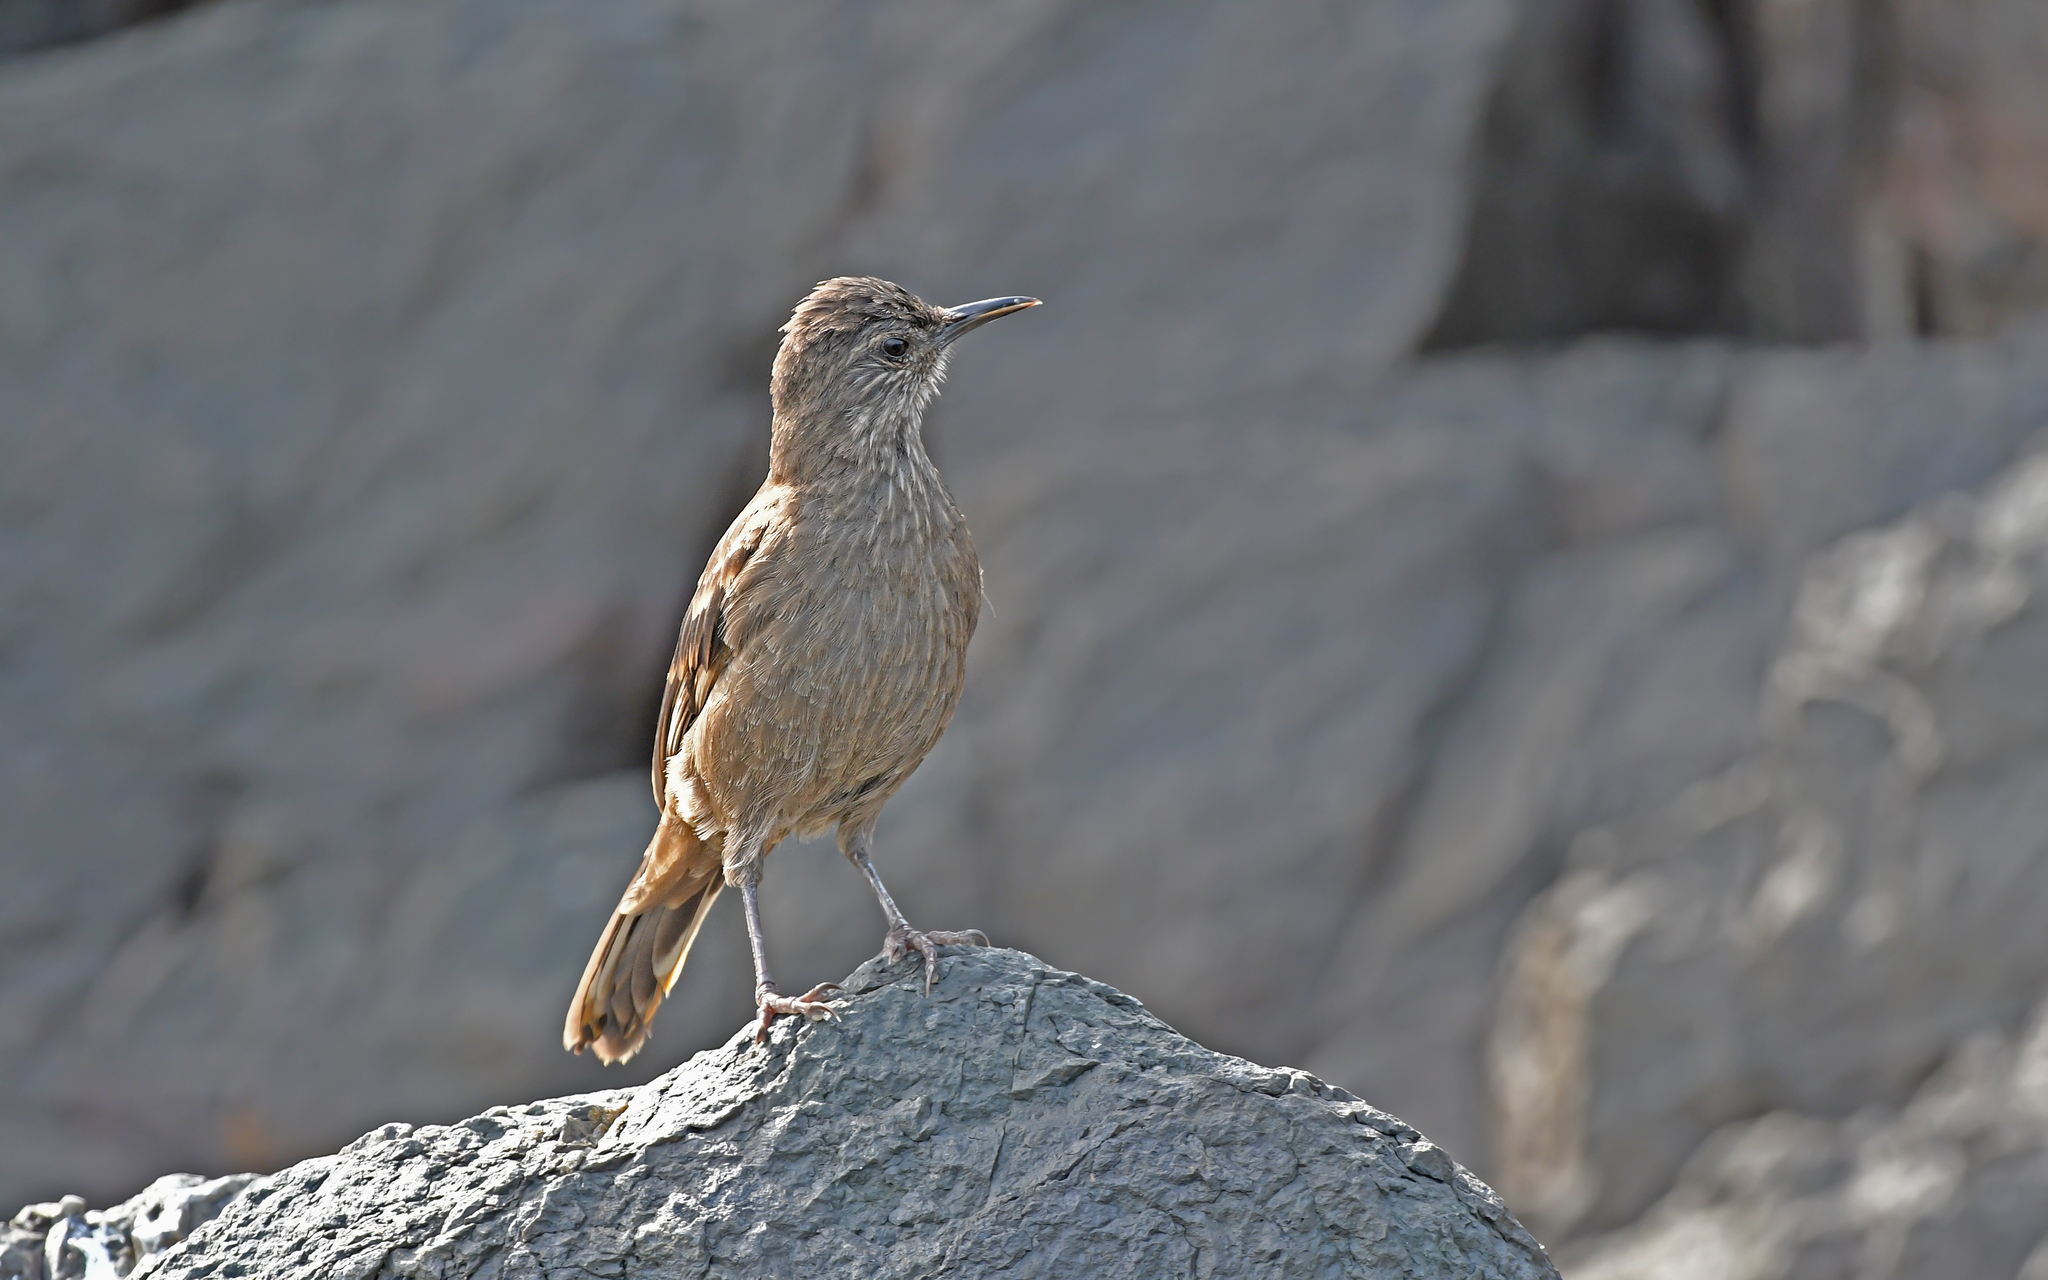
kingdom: Animalia
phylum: Chordata
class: Aves
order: Passeriformes
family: Furnariidae
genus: Cinclodes
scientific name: Cinclodes taczanowskii
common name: Peruvian seaside cinclodes
